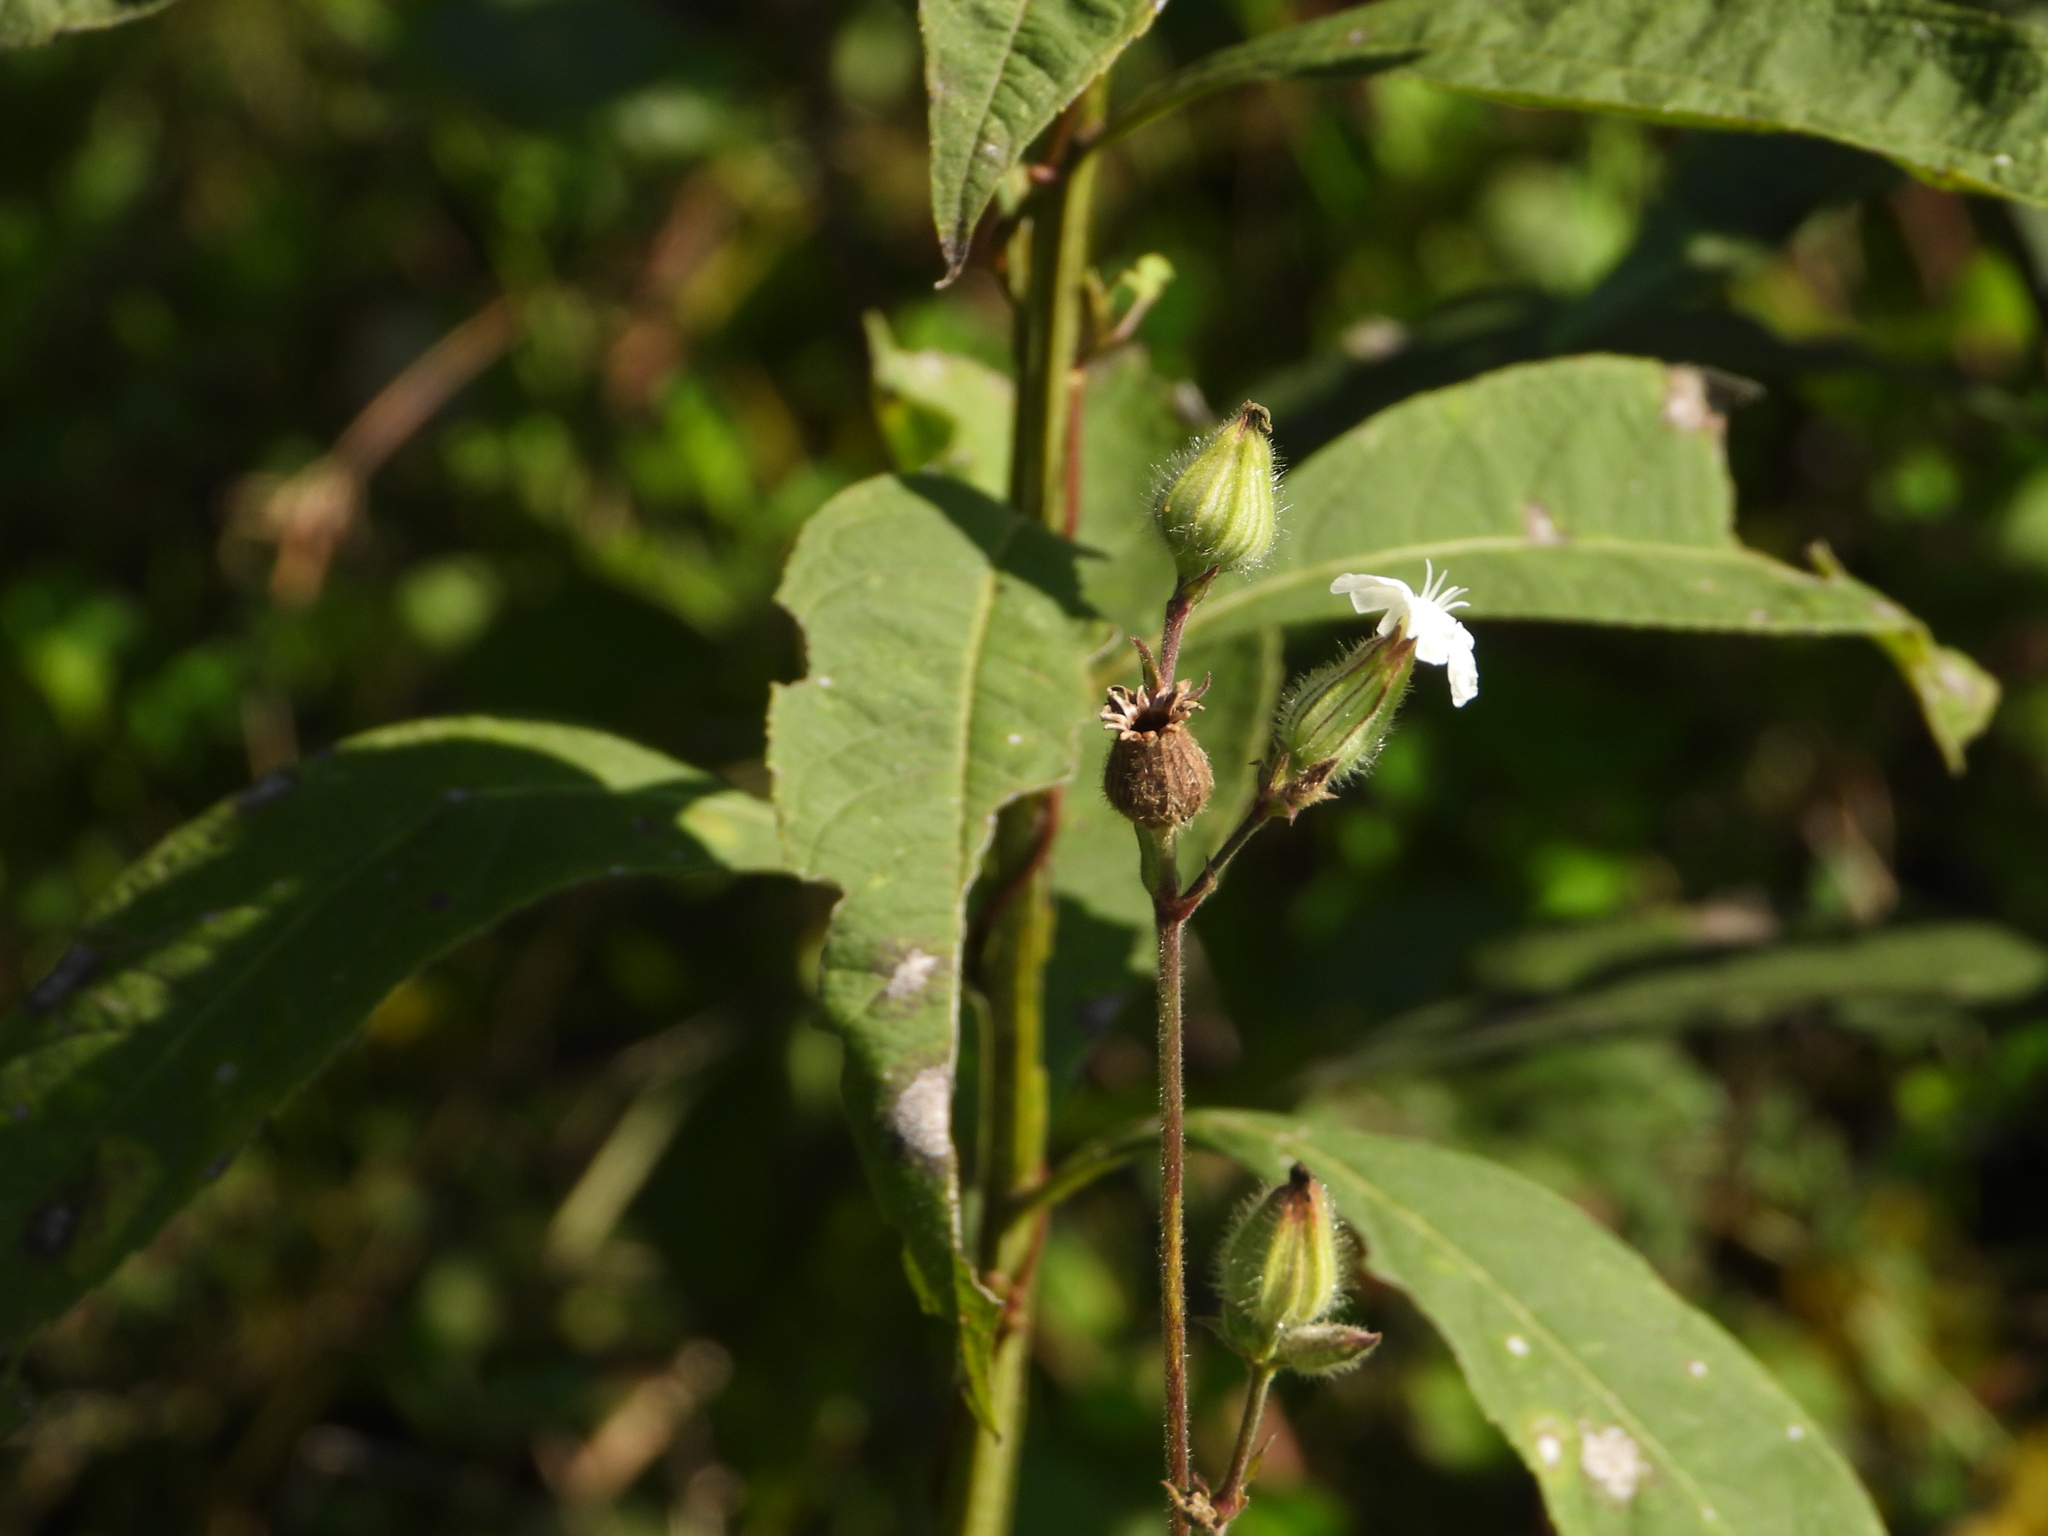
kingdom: Plantae
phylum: Tracheophyta
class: Magnoliopsida
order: Caryophyllales
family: Caryophyllaceae
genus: Silene
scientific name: Silene latifolia
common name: White campion
